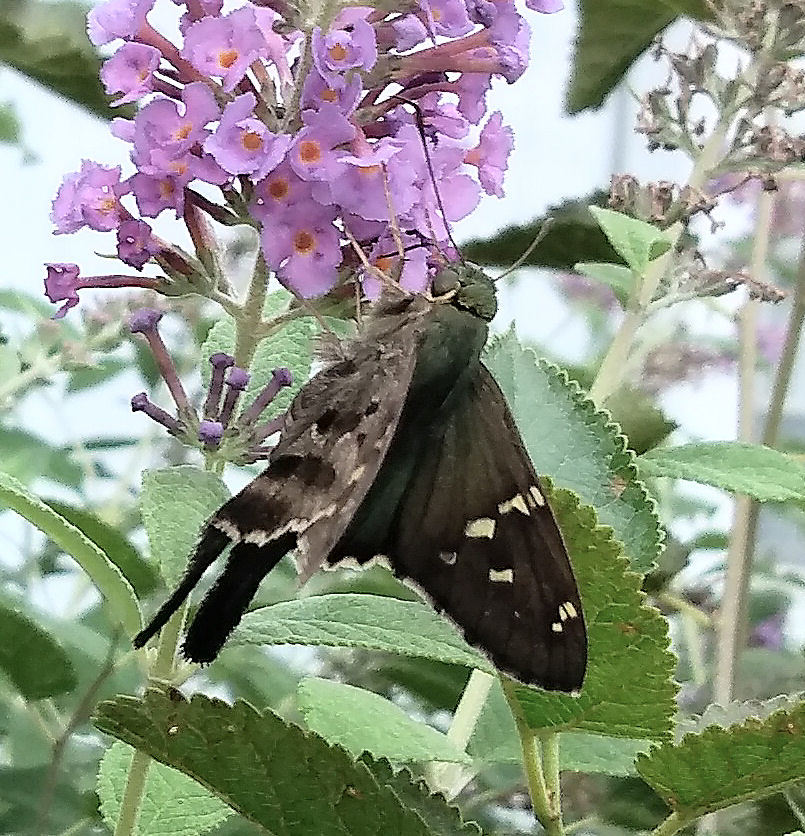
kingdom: Animalia
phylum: Arthropoda
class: Insecta
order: Lepidoptera
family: Hesperiidae
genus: Urbanus
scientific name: Urbanus proteus
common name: Long-tailed skipper
